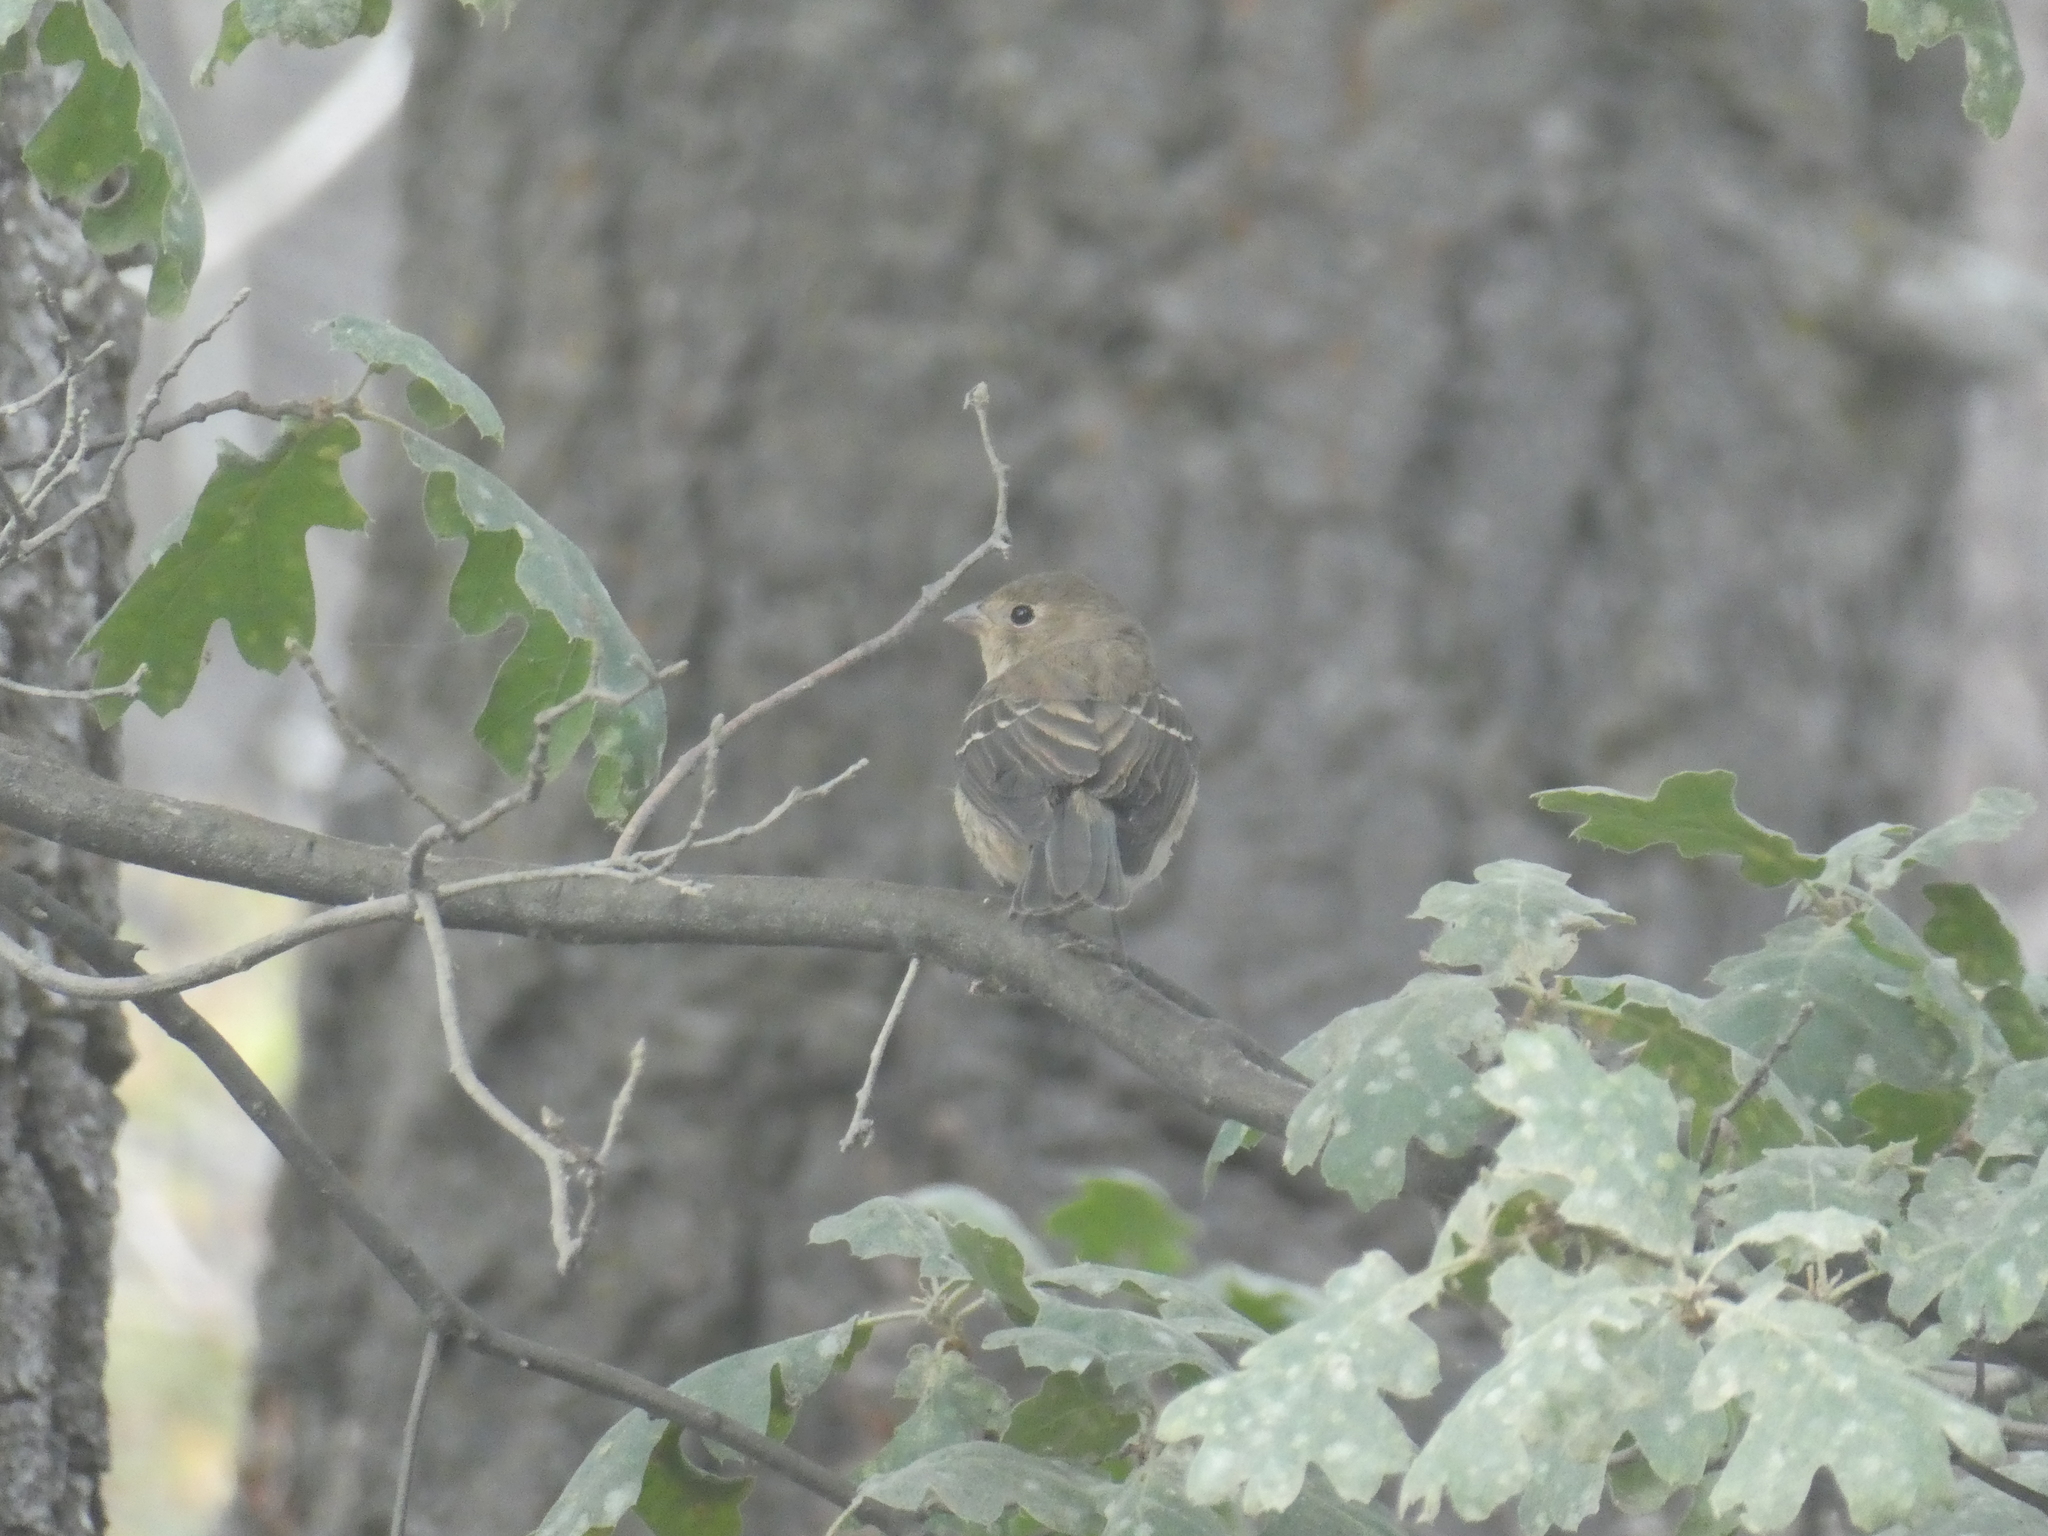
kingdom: Animalia
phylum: Chordata
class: Aves
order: Passeriformes
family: Fringillidae
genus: Spinus
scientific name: Spinus psaltria
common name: Lesser goldfinch
